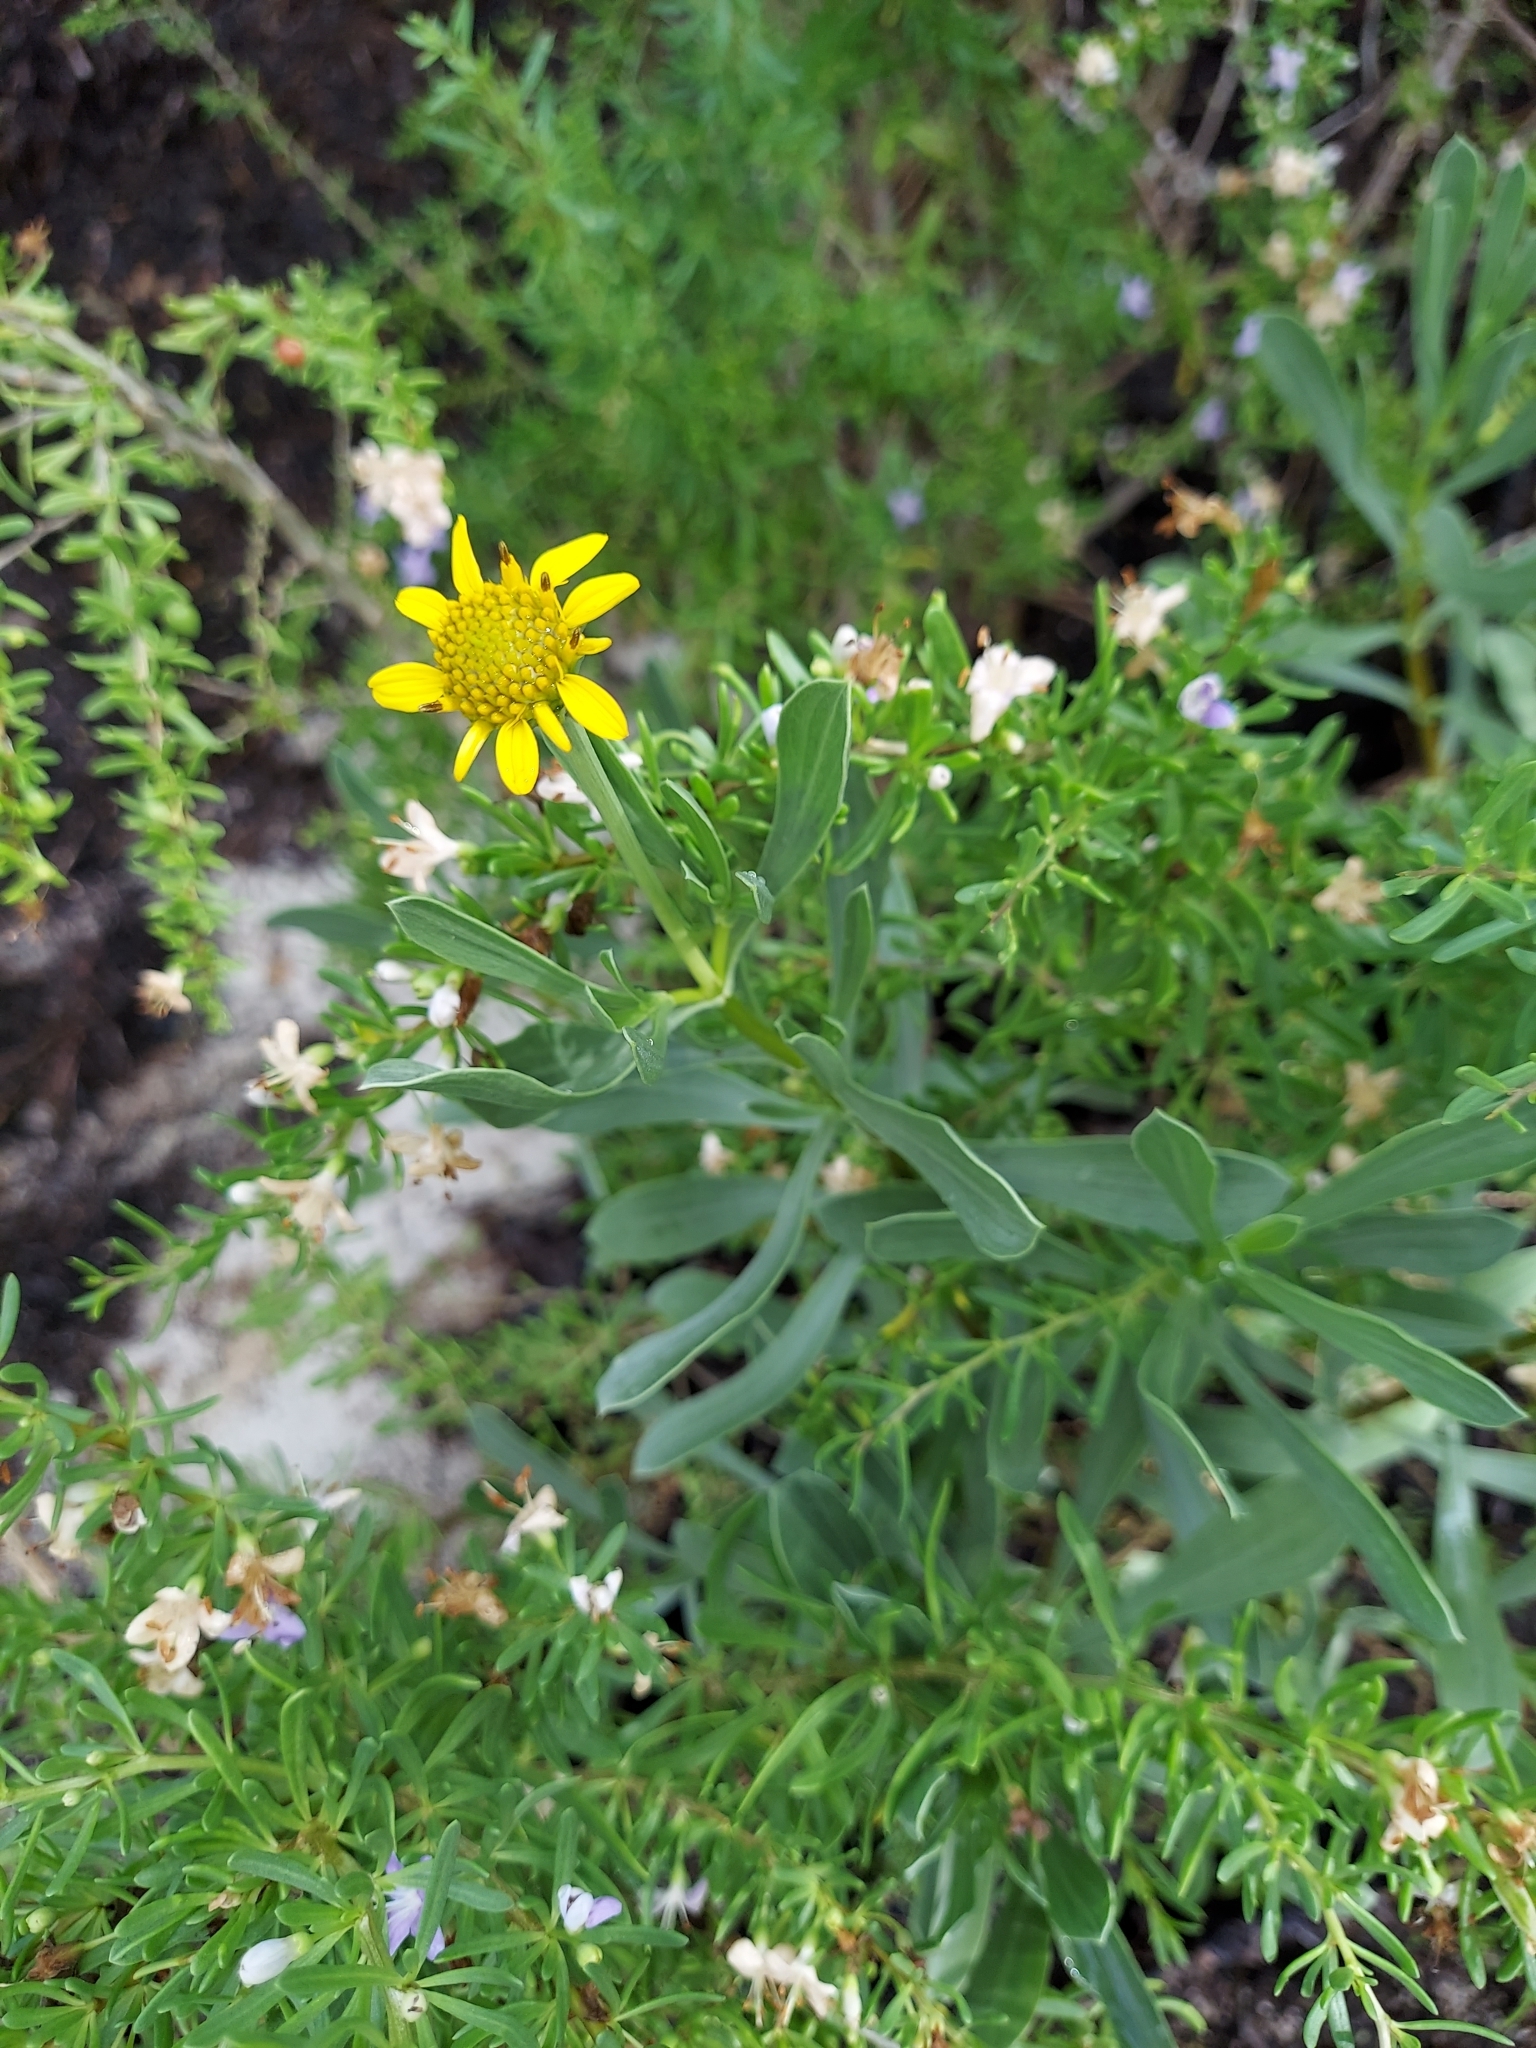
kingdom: Plantae
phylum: Tracheophyta
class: Magnoliopsida
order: Asterales
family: Asteraceae
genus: Borrichia
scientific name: Borrichia frutescens
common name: Sea oxeye
